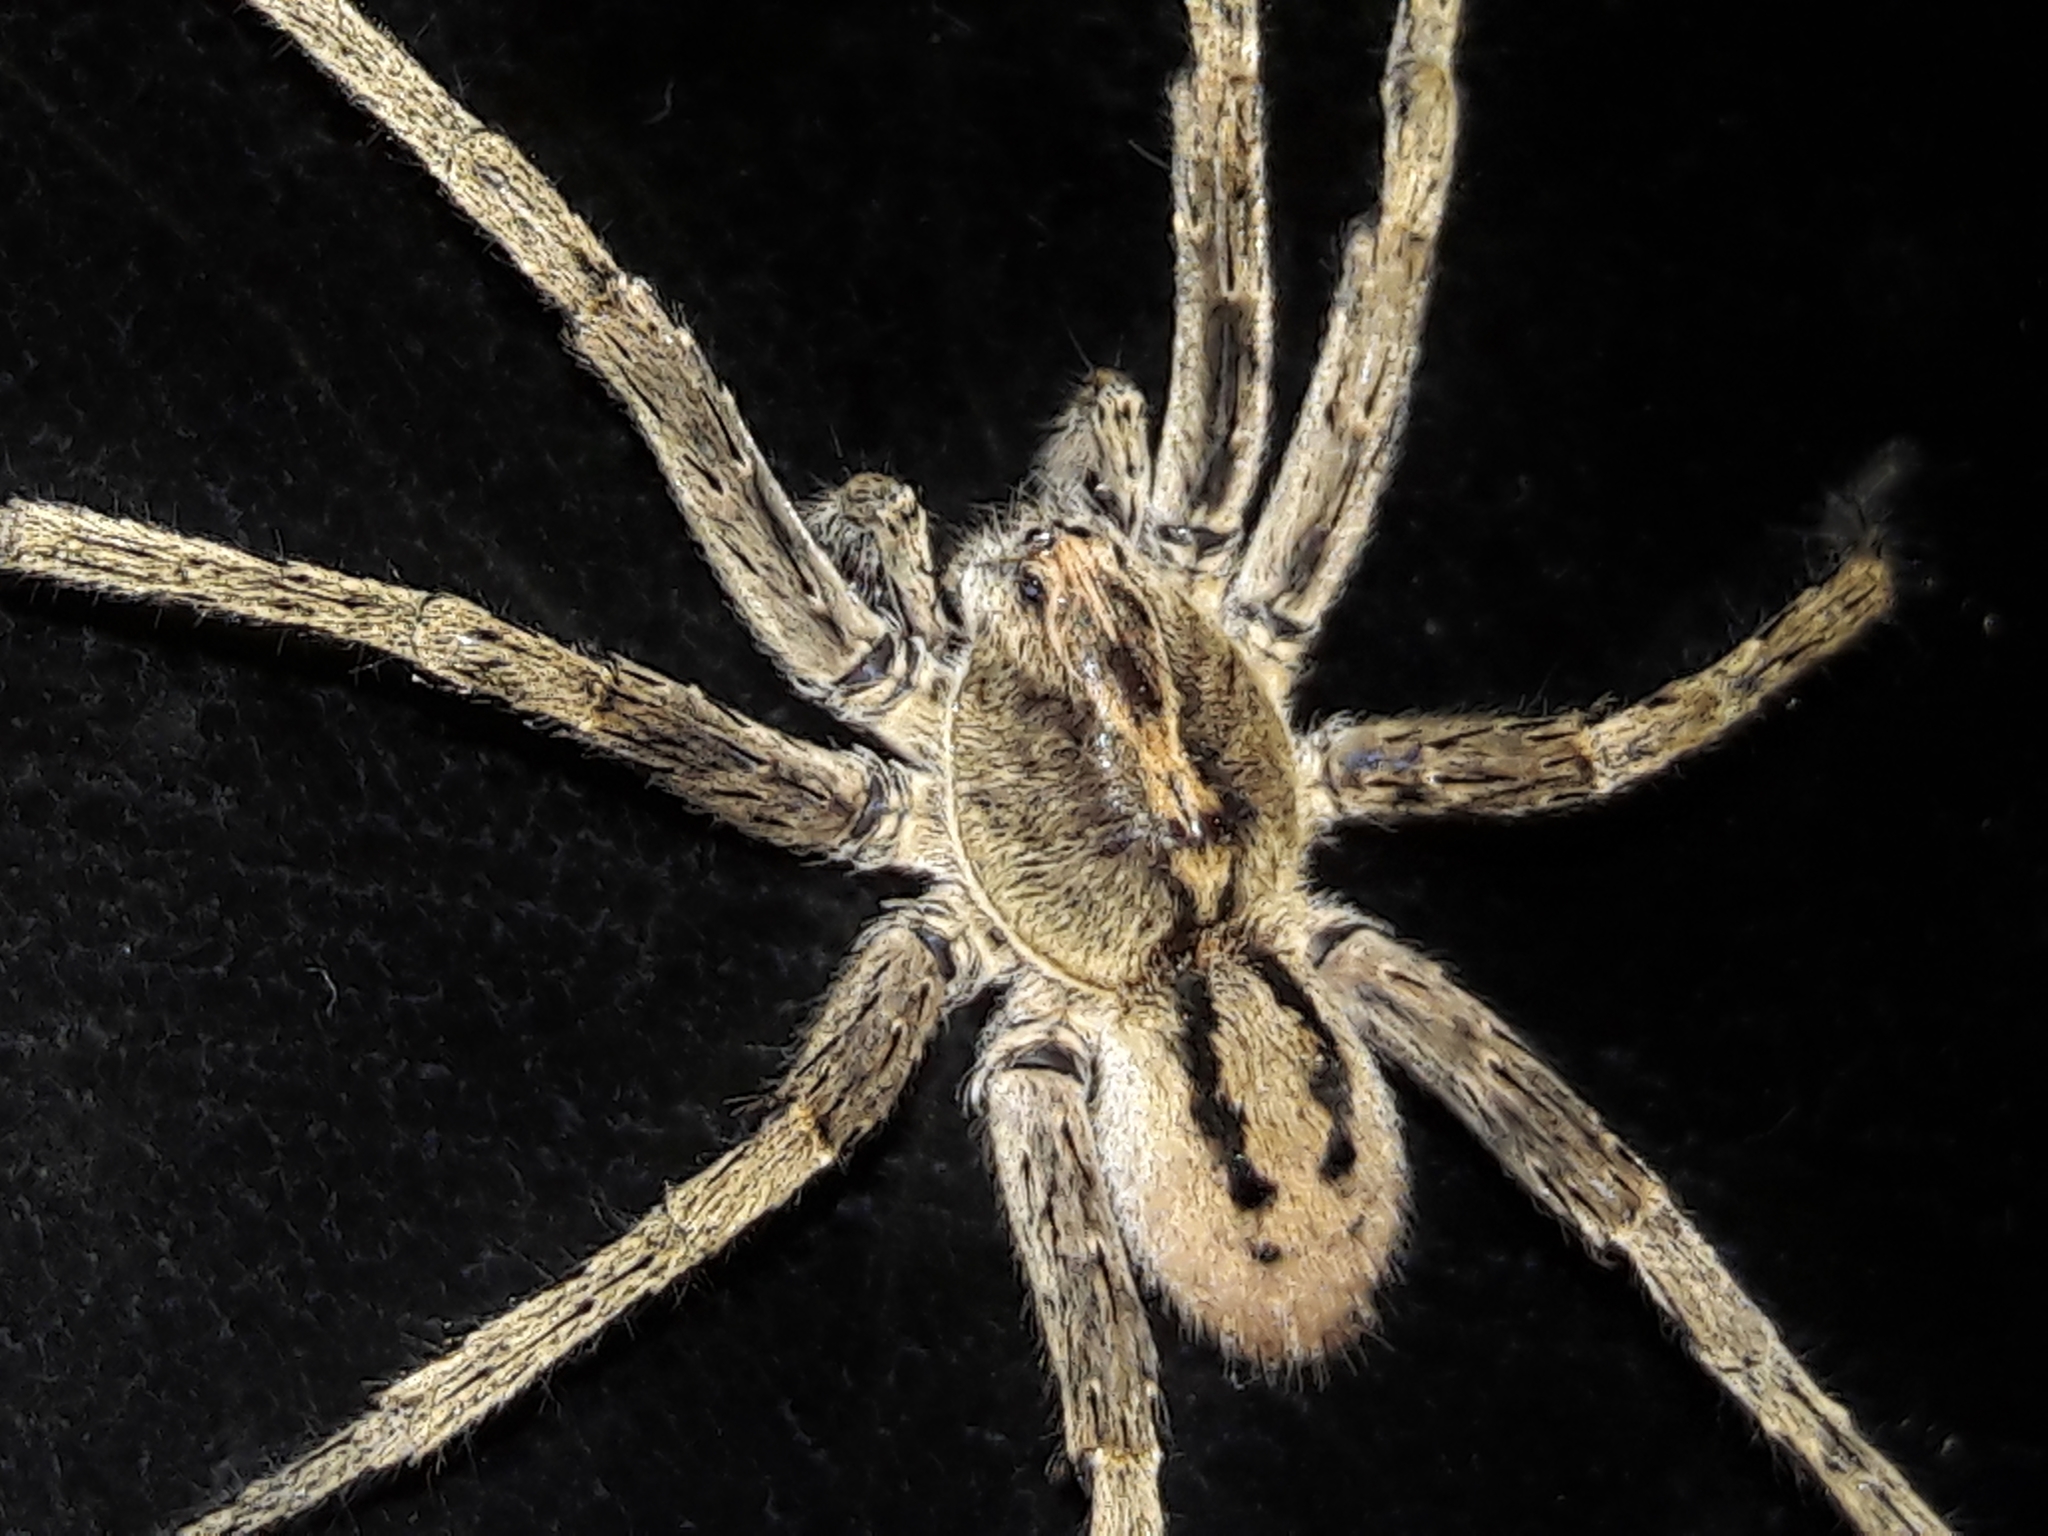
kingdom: Animalia
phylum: Arthropoda
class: Arachnida
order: Araneae
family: Ctenidae
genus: Parabatinga
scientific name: Parabatinga brevipes
